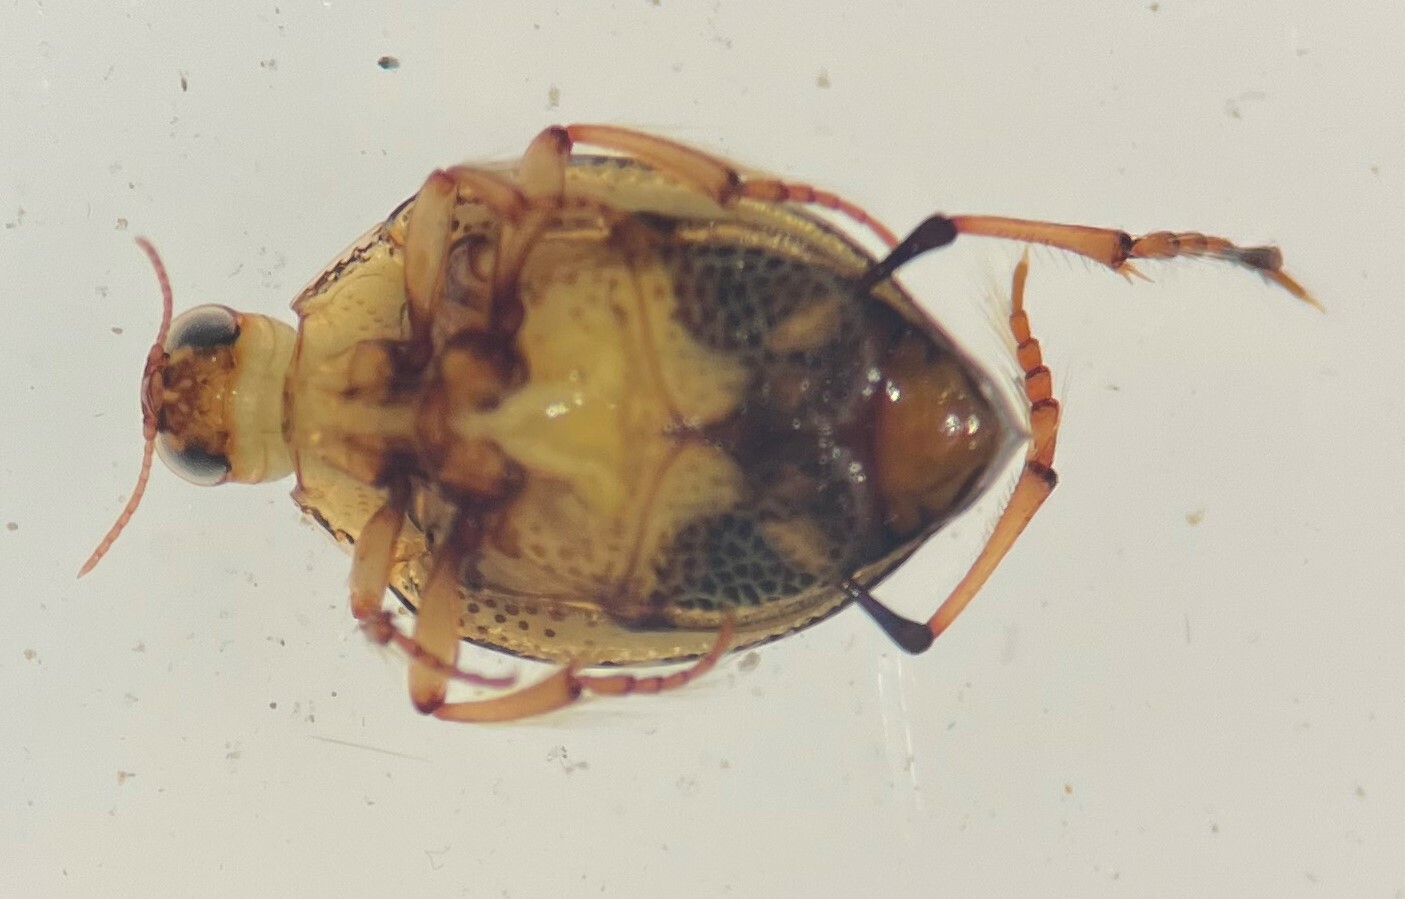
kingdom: Animalia
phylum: Arthropoda
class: Insecta
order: Coleoptera
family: Haliplidae
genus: Peltodytes
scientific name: Peltodytes muticus
